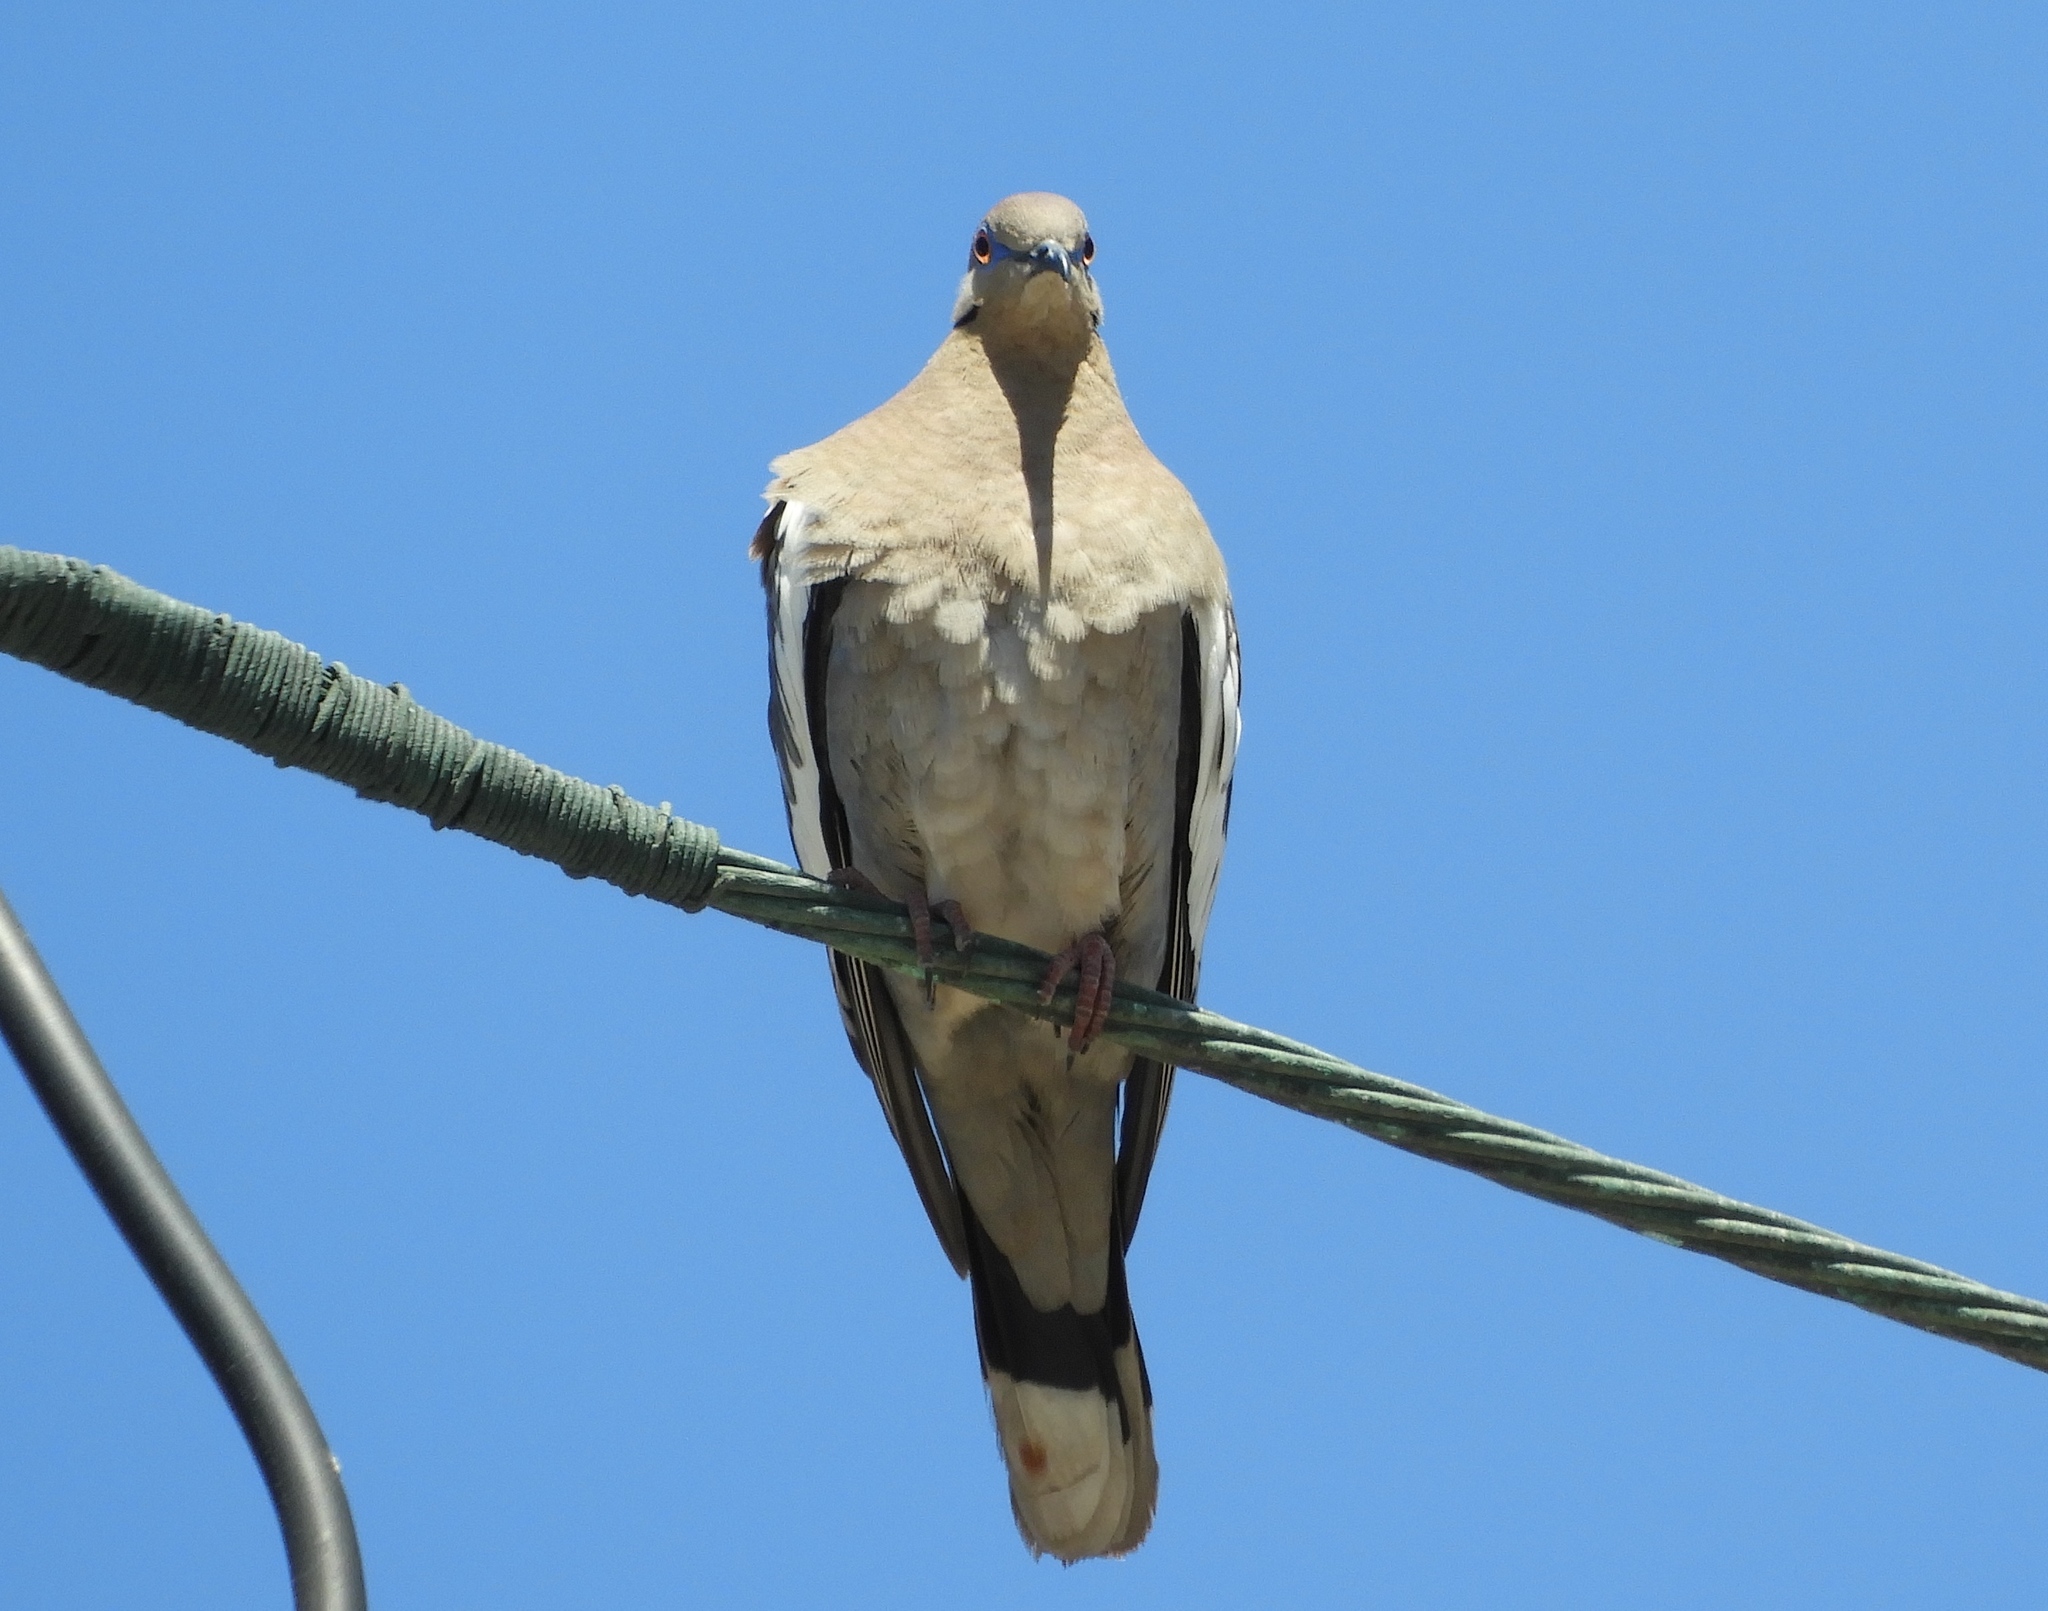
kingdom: Animalia
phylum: Chordata
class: Aves
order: Columbiformes
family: Columbidae
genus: Zenaida
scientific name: Zenaida asiatica
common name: White-winged dove
